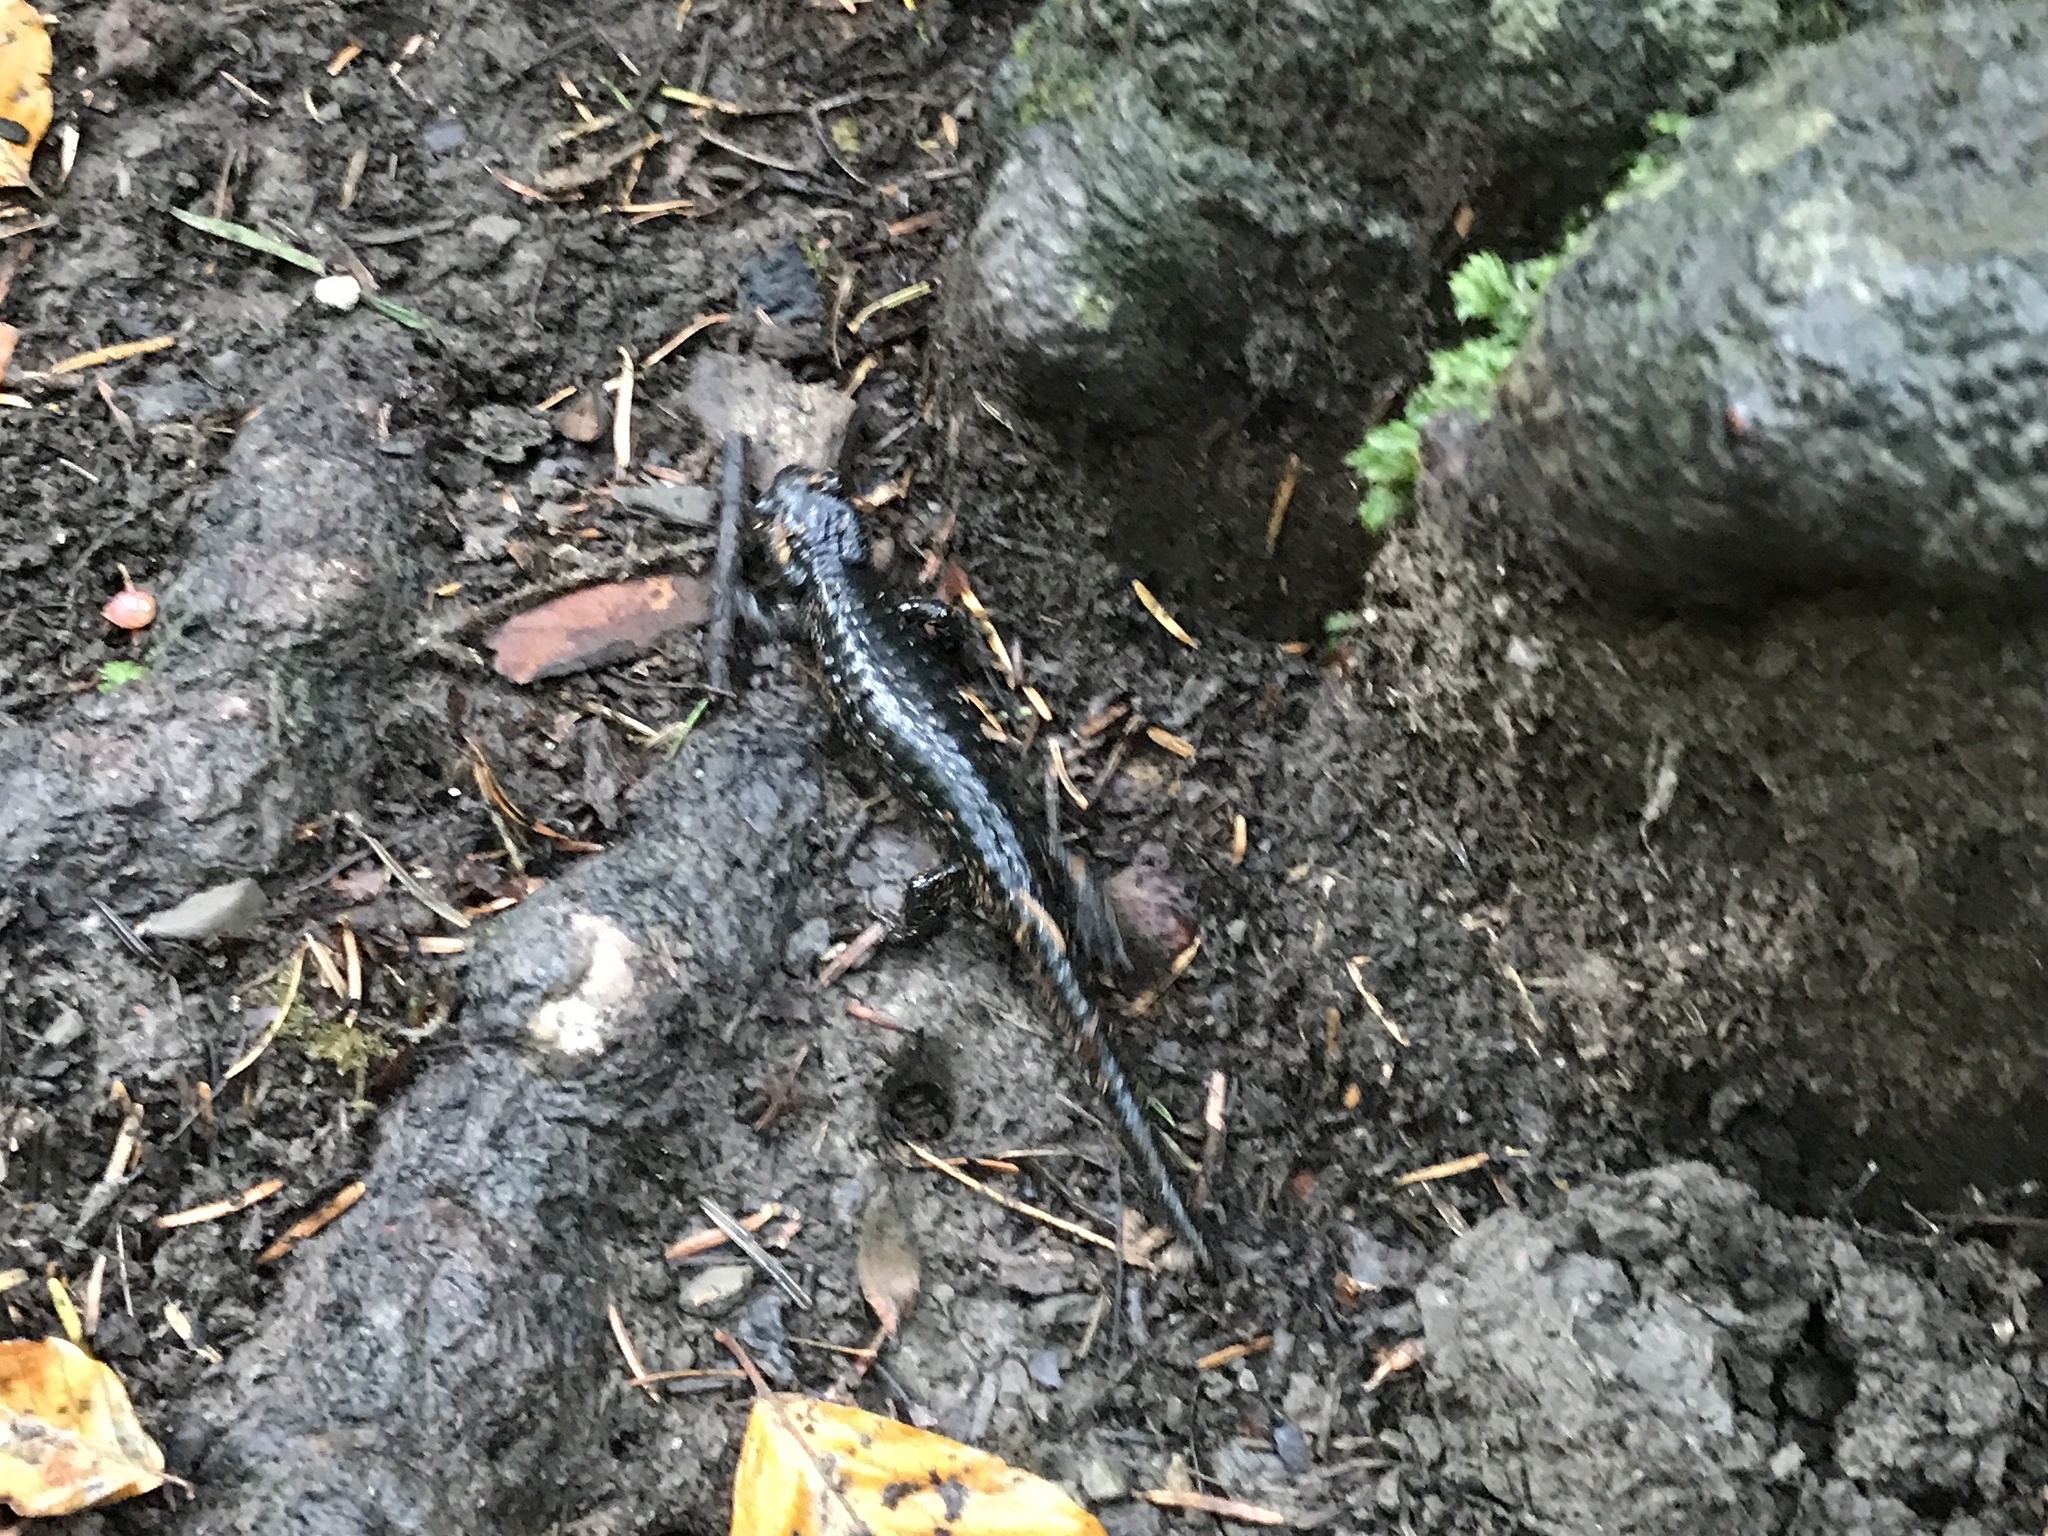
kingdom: Animalia
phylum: Chordata
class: Amphibia
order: Caudata
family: Salamandridae
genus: Salamandra
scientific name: Salamandra atra
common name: Alpine salamander
